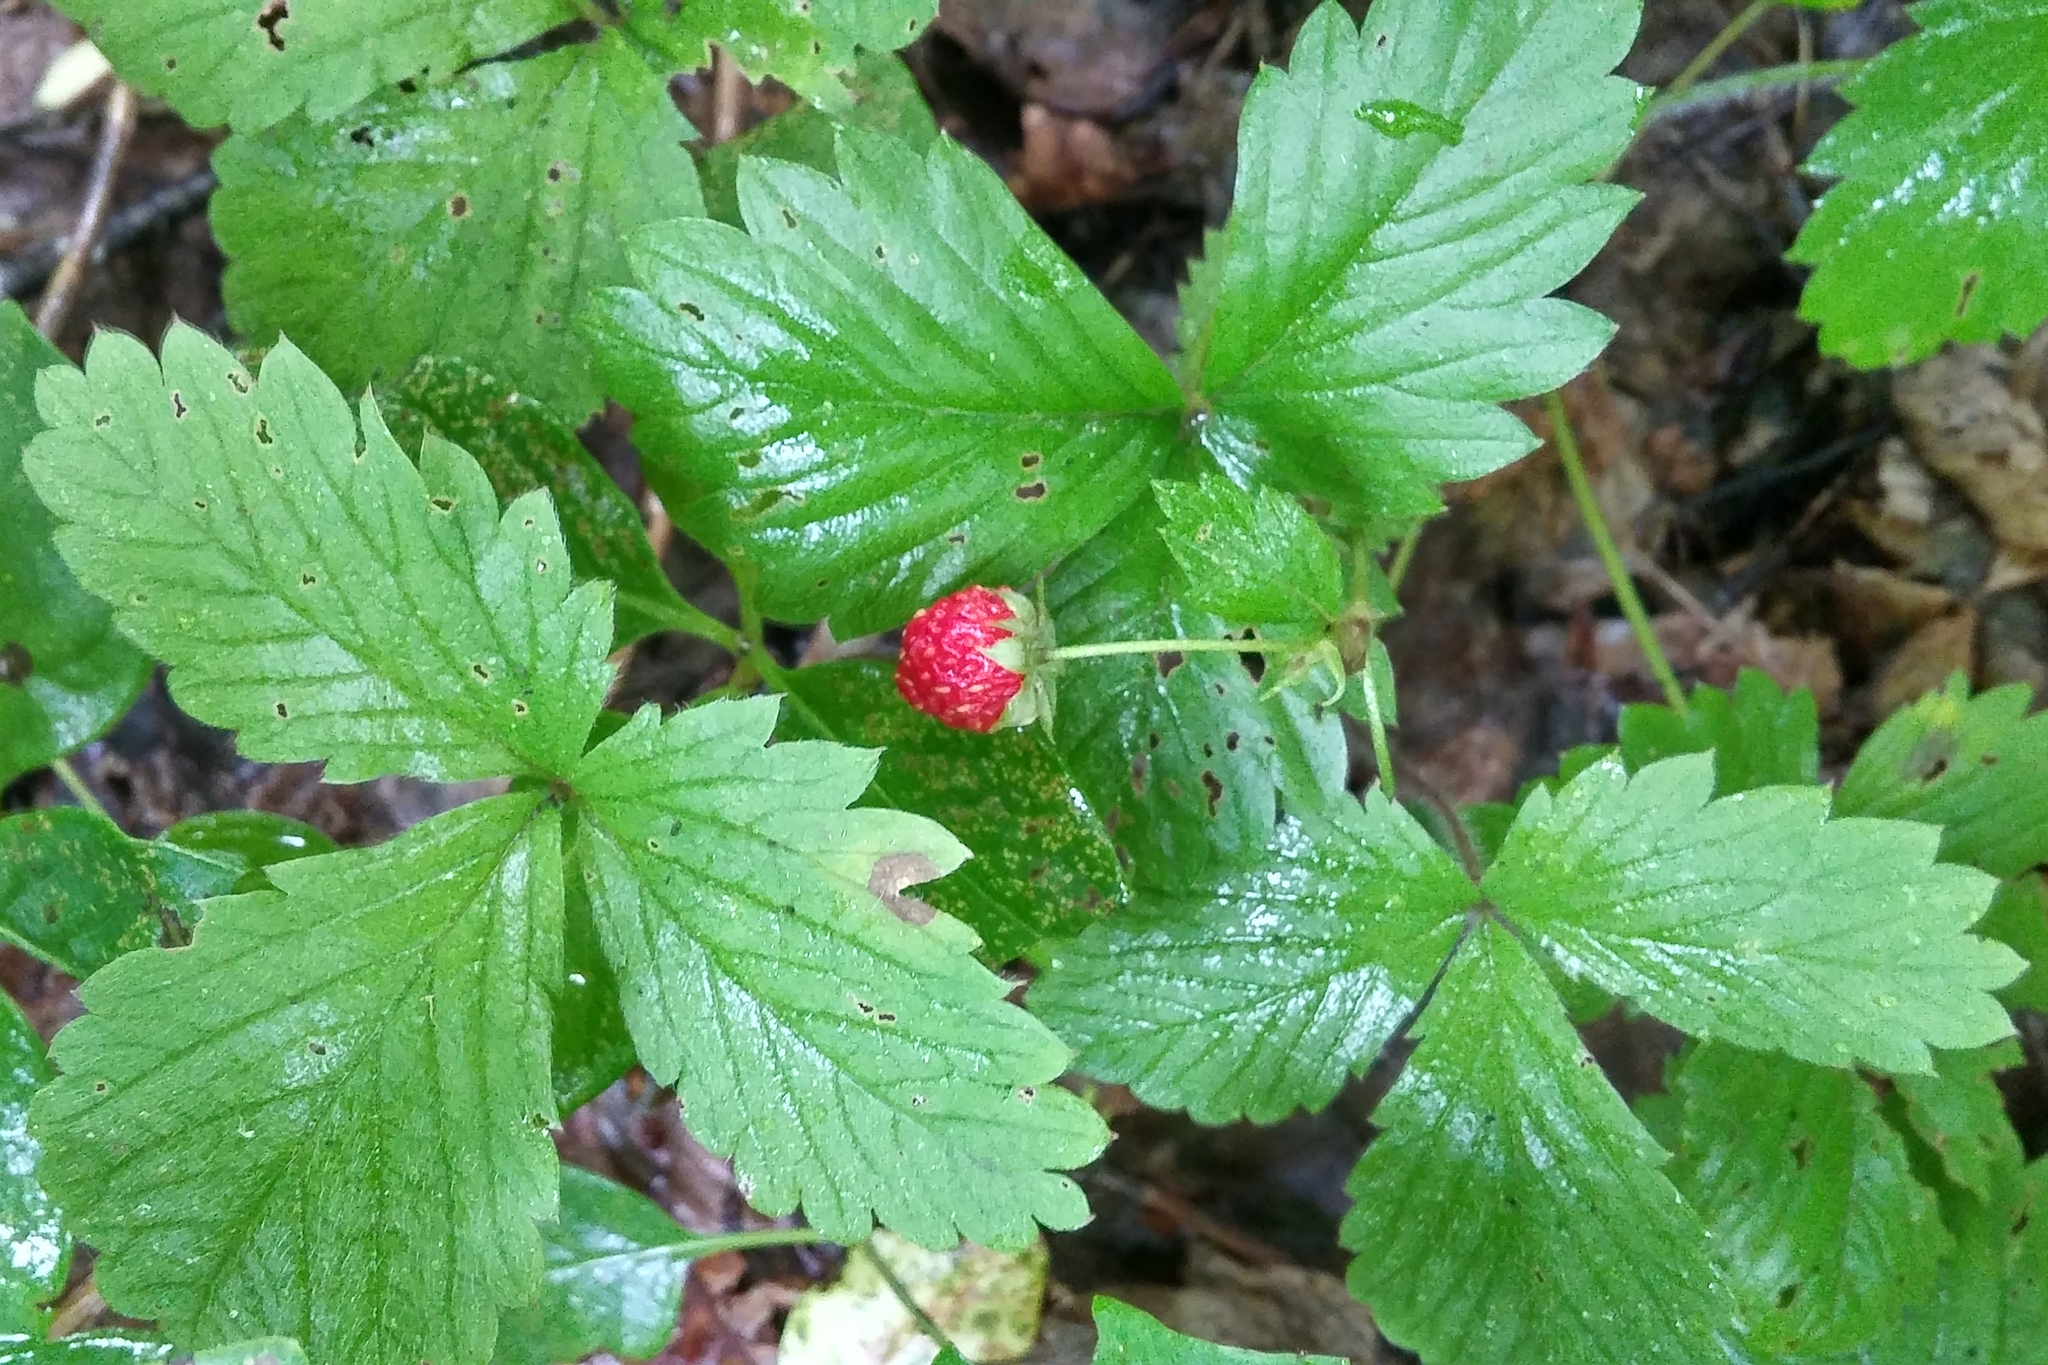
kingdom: Plantae
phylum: Tracheophyta
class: Magnoliopsida
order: Rosales
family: Rosaceae
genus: Fragaria
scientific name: Fragaria vesca
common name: Wild strawberry
